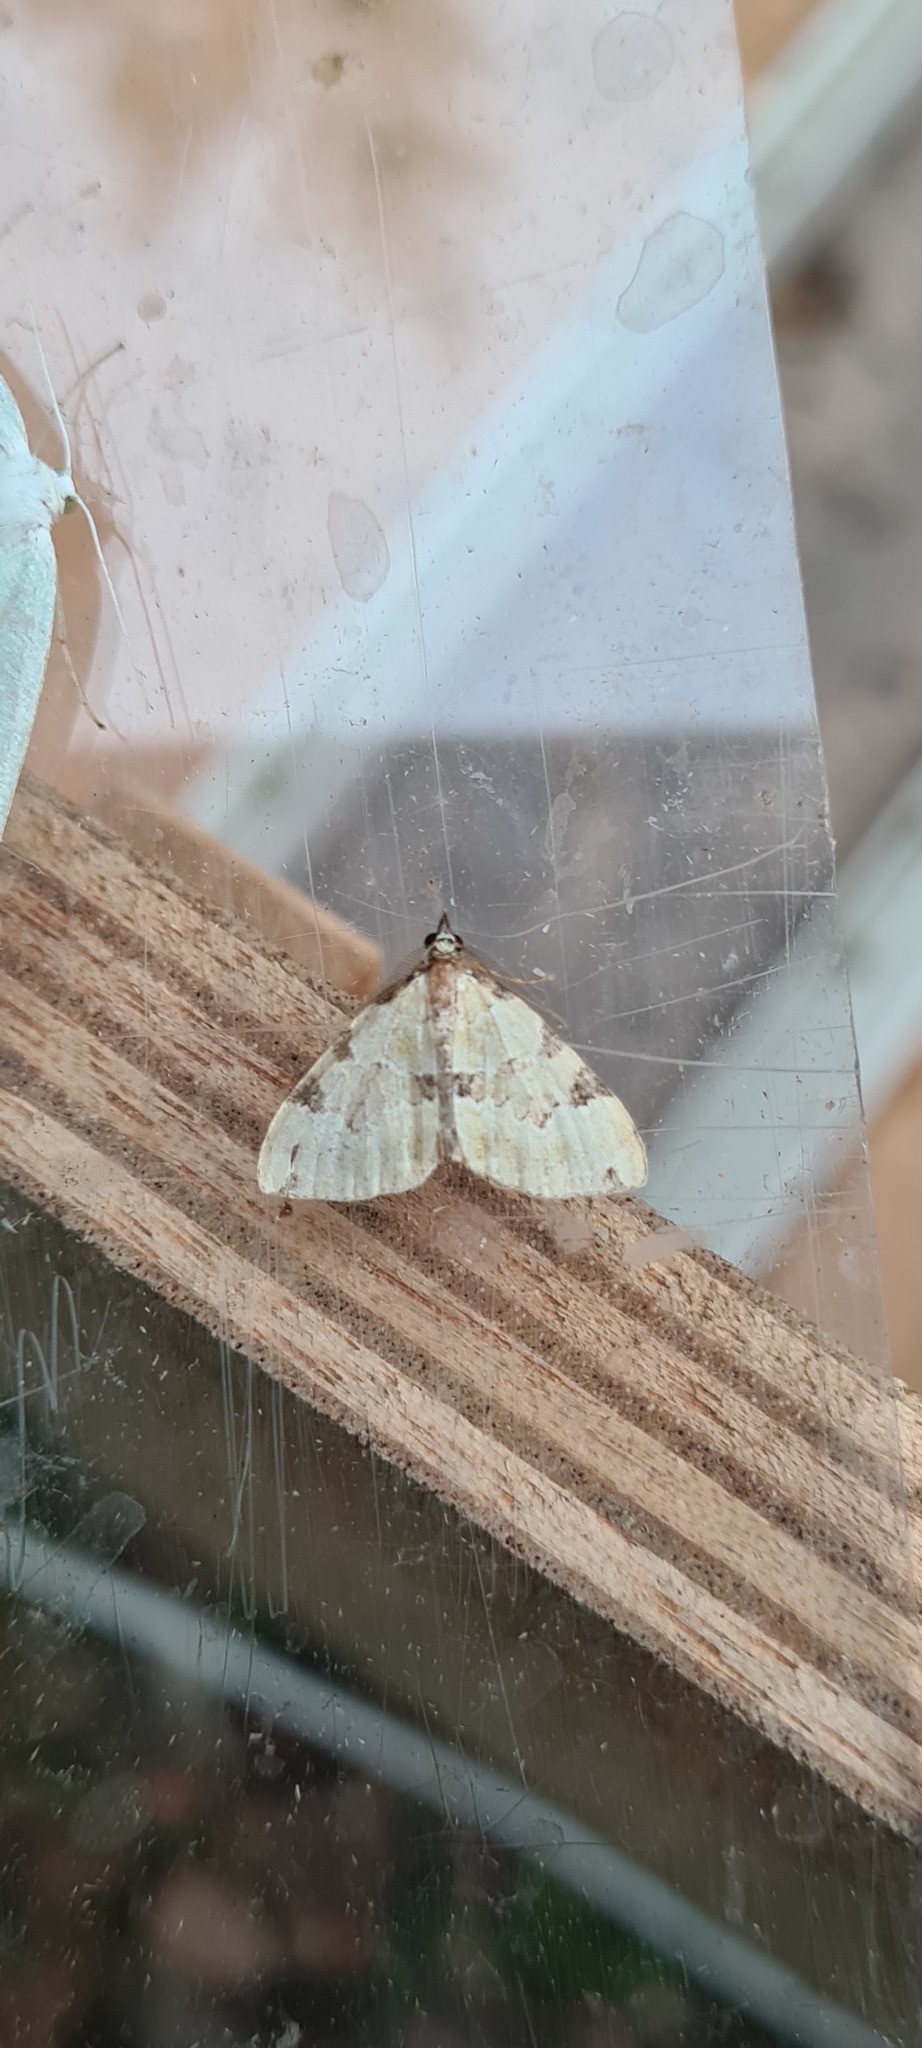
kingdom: Animalia
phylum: Arthropoda
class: Insecta
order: Lepidoptera
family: Geometridae
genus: Colostygia
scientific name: Colostygia pectinataria
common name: Green carpet
